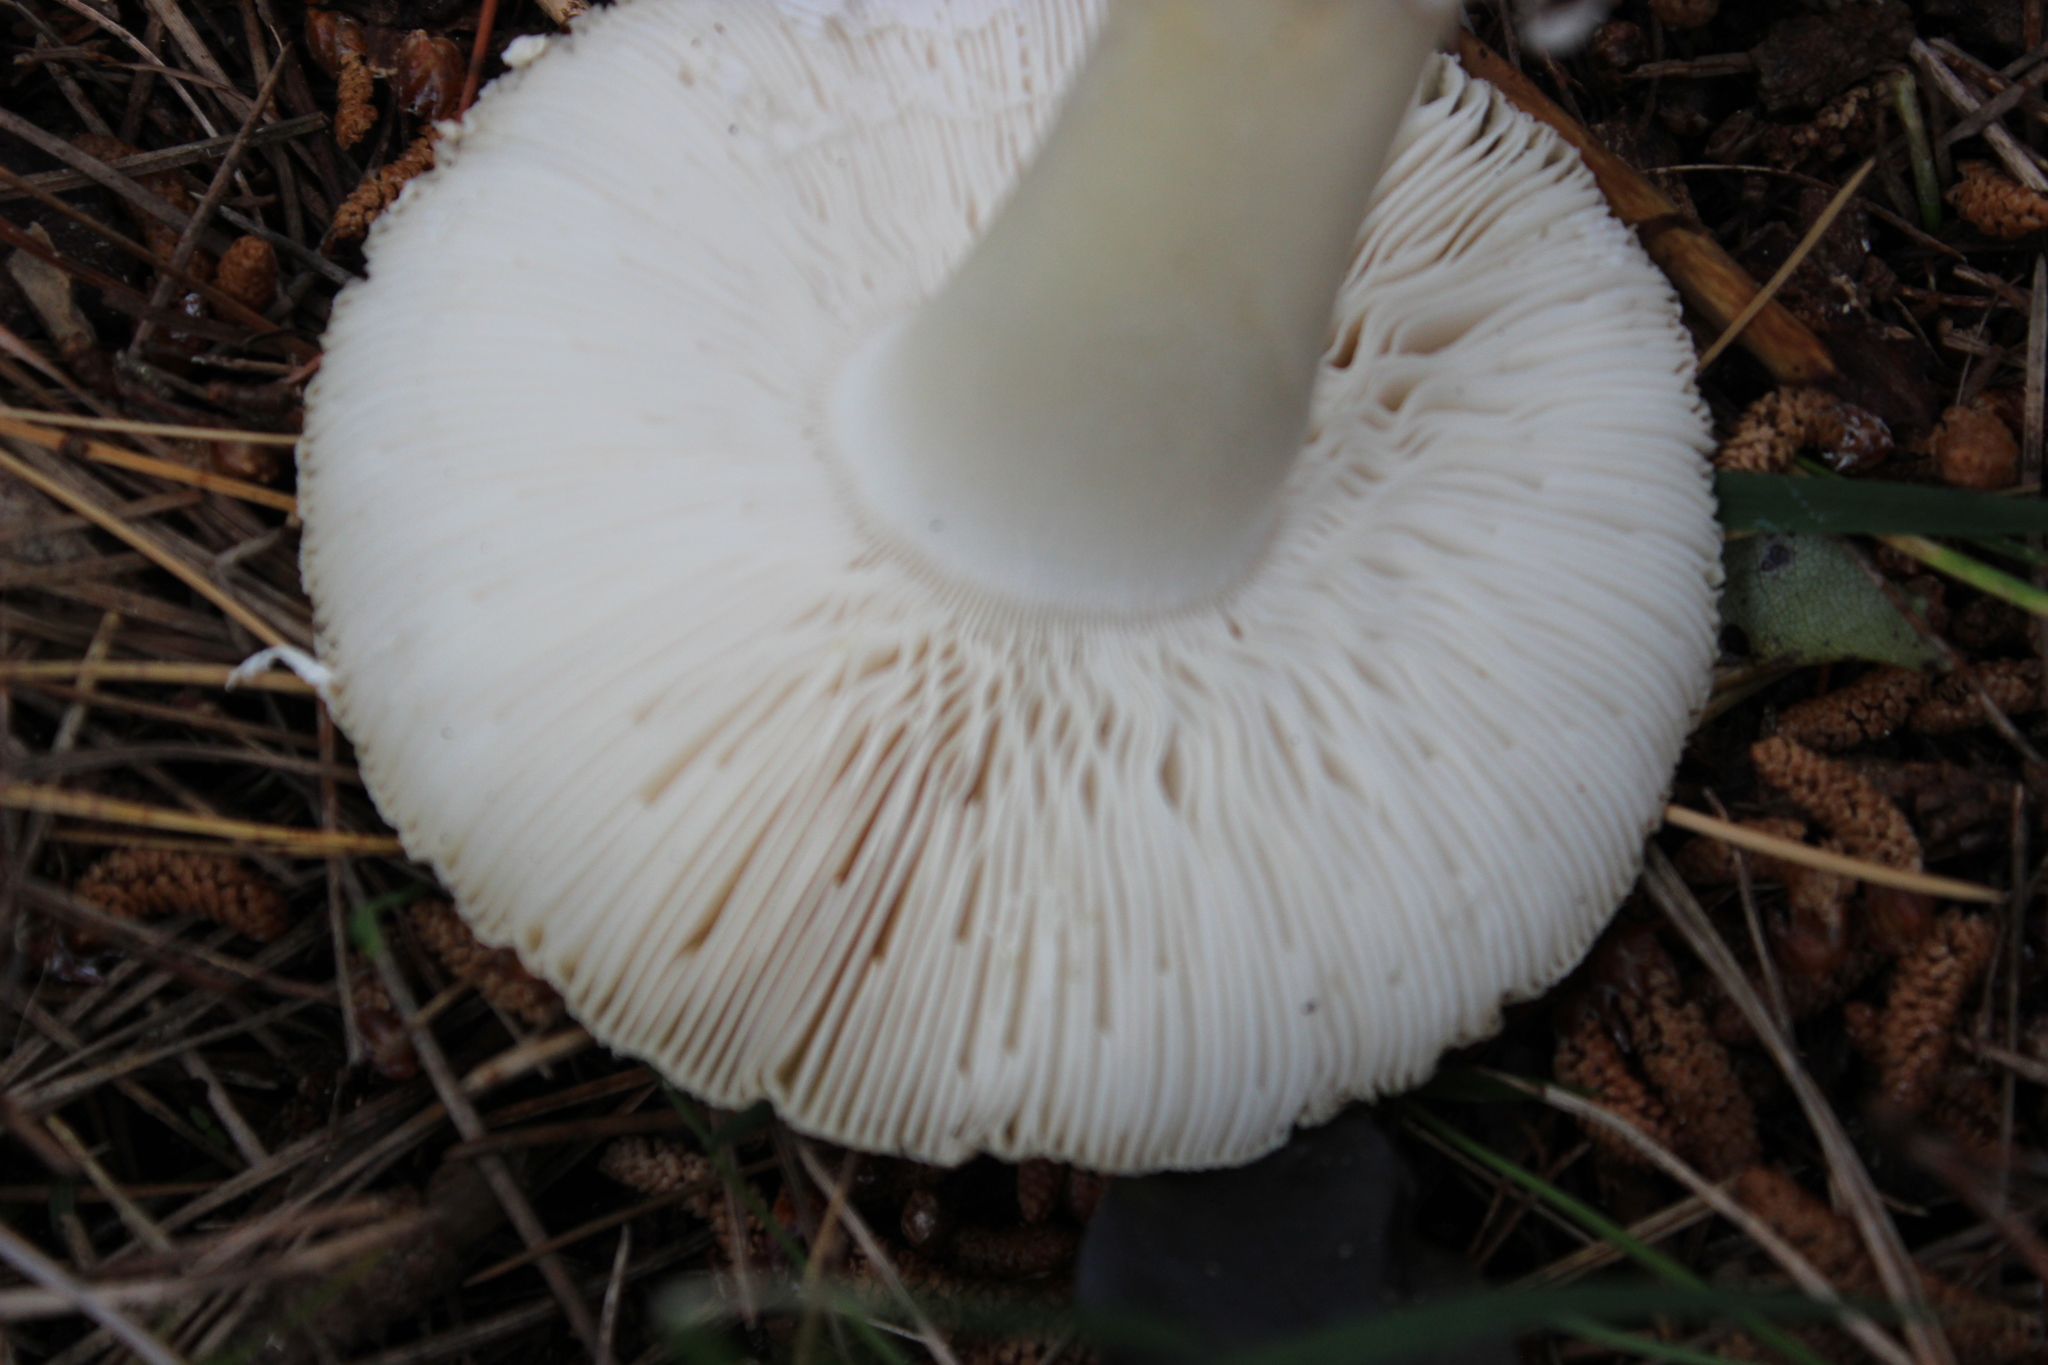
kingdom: Fungi
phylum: Basidiomycota
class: Agaricomycetes
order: Agaricales
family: Amanitaceae
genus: Amanita
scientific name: Amanita gemmata
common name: Jewelled amanita
